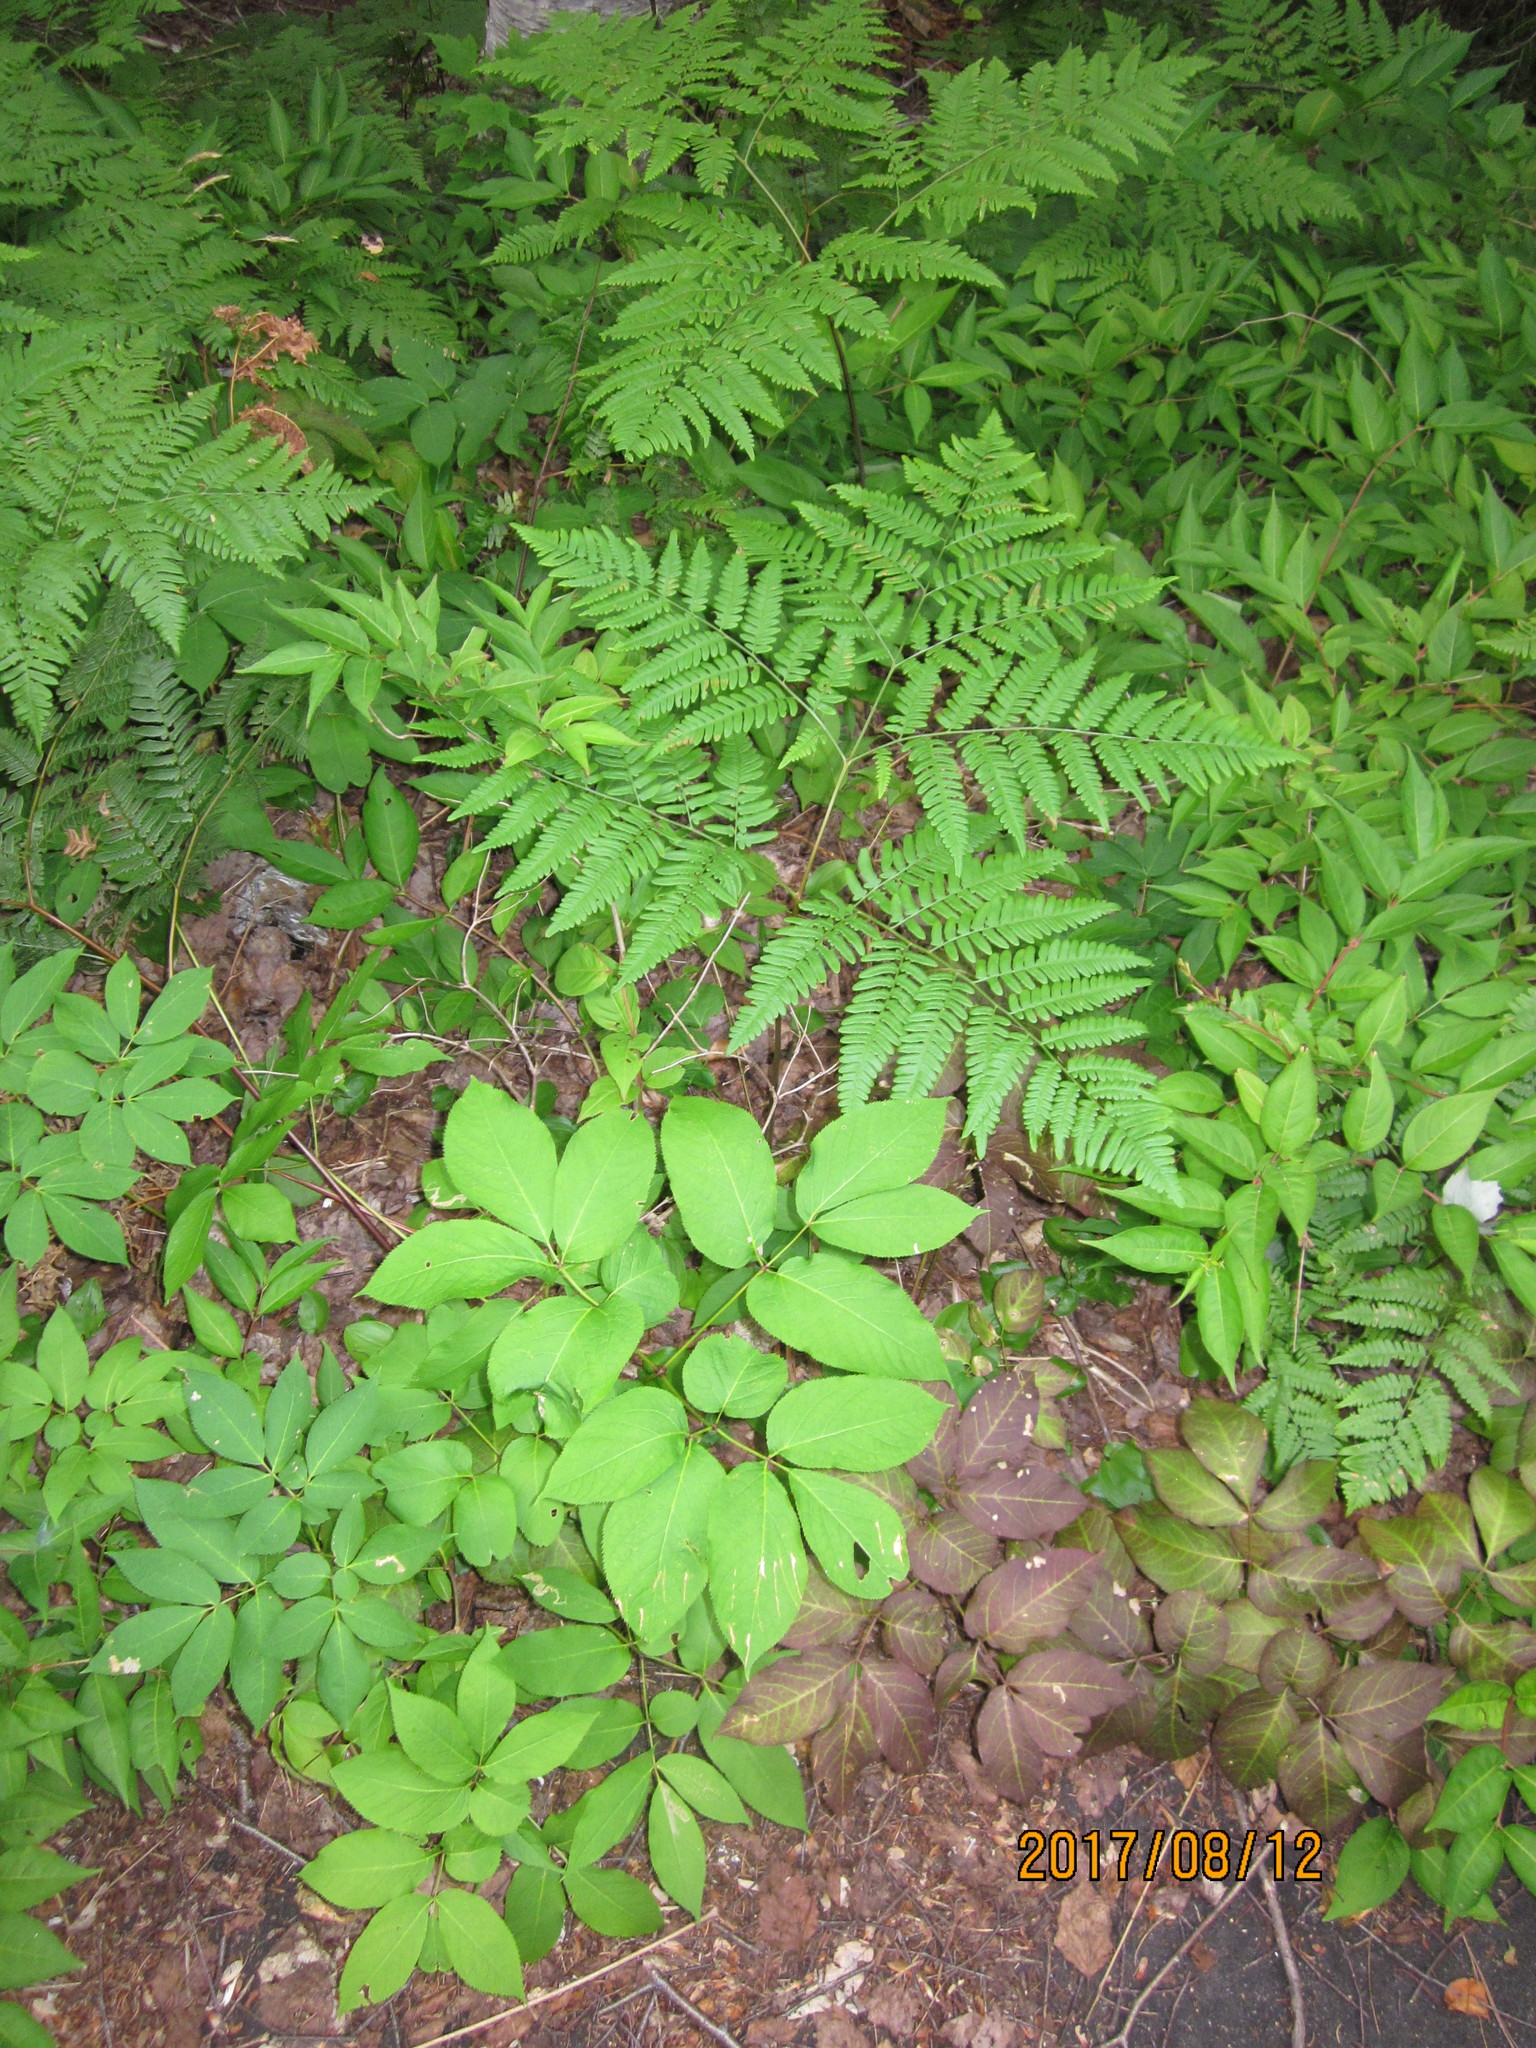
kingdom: Plantae
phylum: Tracheophyta
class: Polypodiopsida
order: Polypodiales
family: Dennstaedtiaceae
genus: Pteridium
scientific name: Pteridium aquilinum
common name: Bracken
